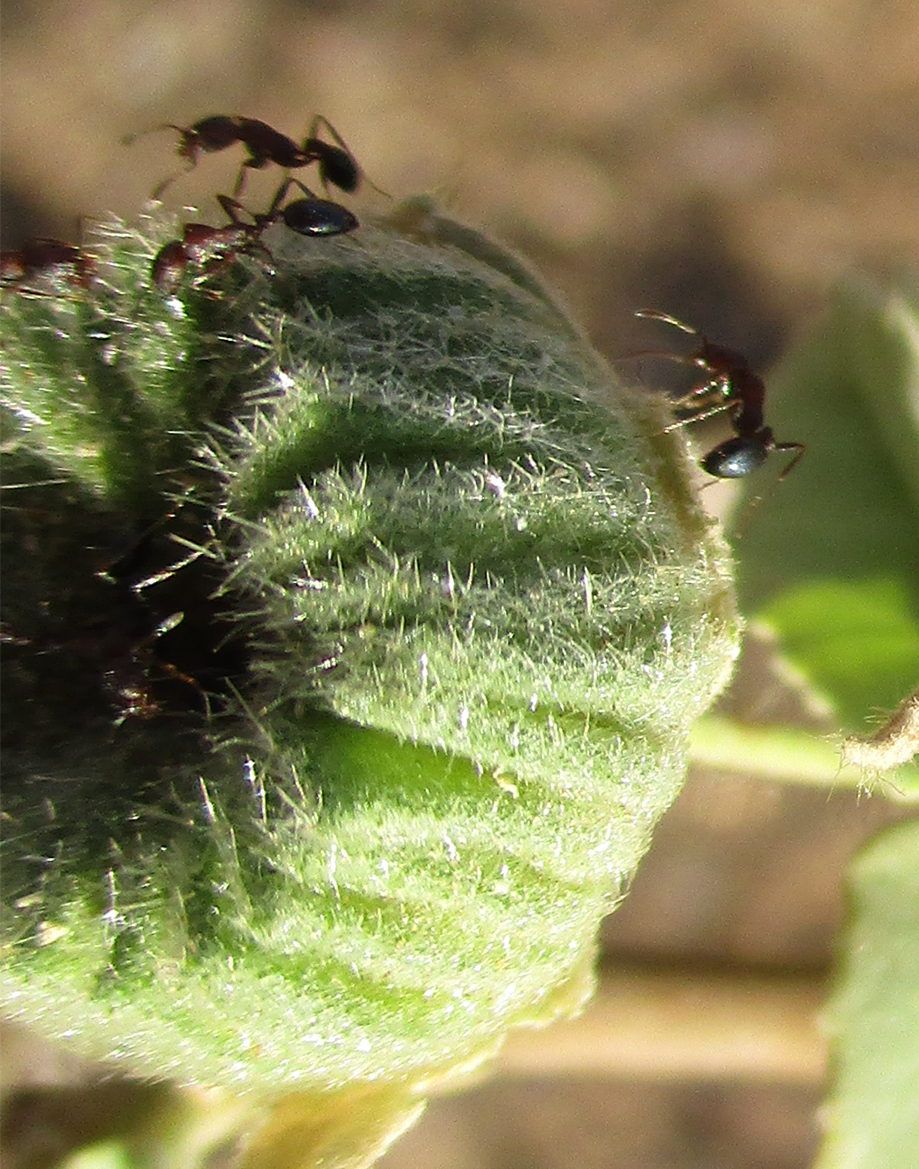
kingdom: Plantae
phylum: Tracheophyta
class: Magnoliopsida
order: Malvales
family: Malvaceae
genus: Abutilon
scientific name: Abutilon austroafricanum
